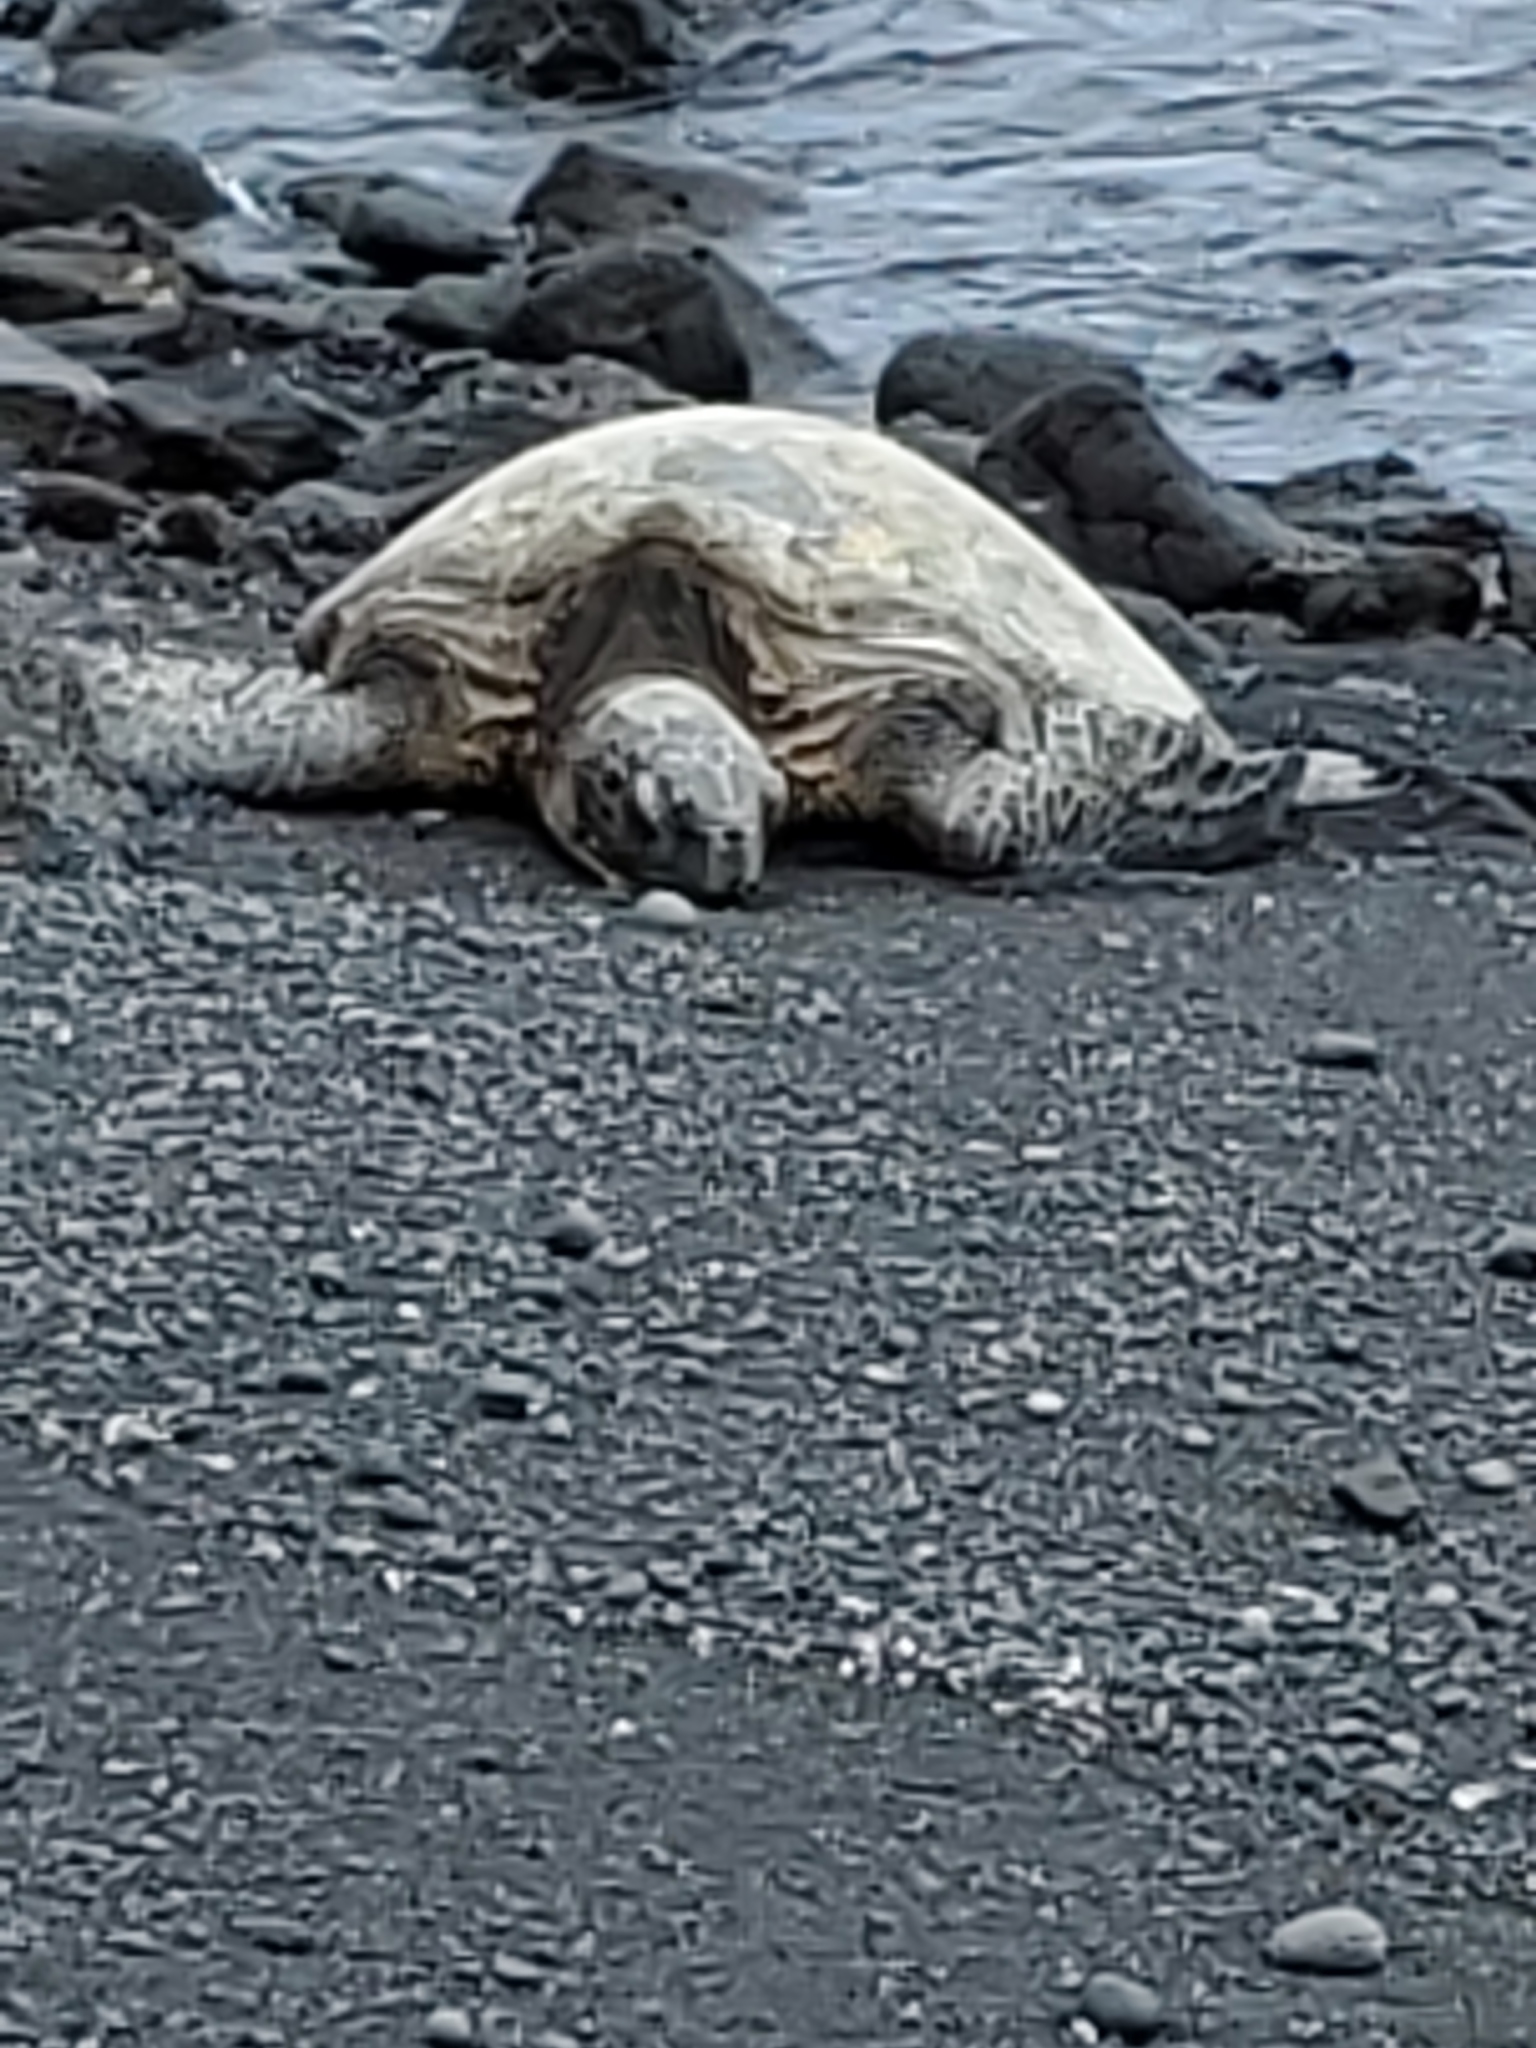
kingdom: Animalia
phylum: Chordata
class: Testudines
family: Cheloniidae
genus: Chelonia
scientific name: Chelonia mydas
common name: Green turtle
